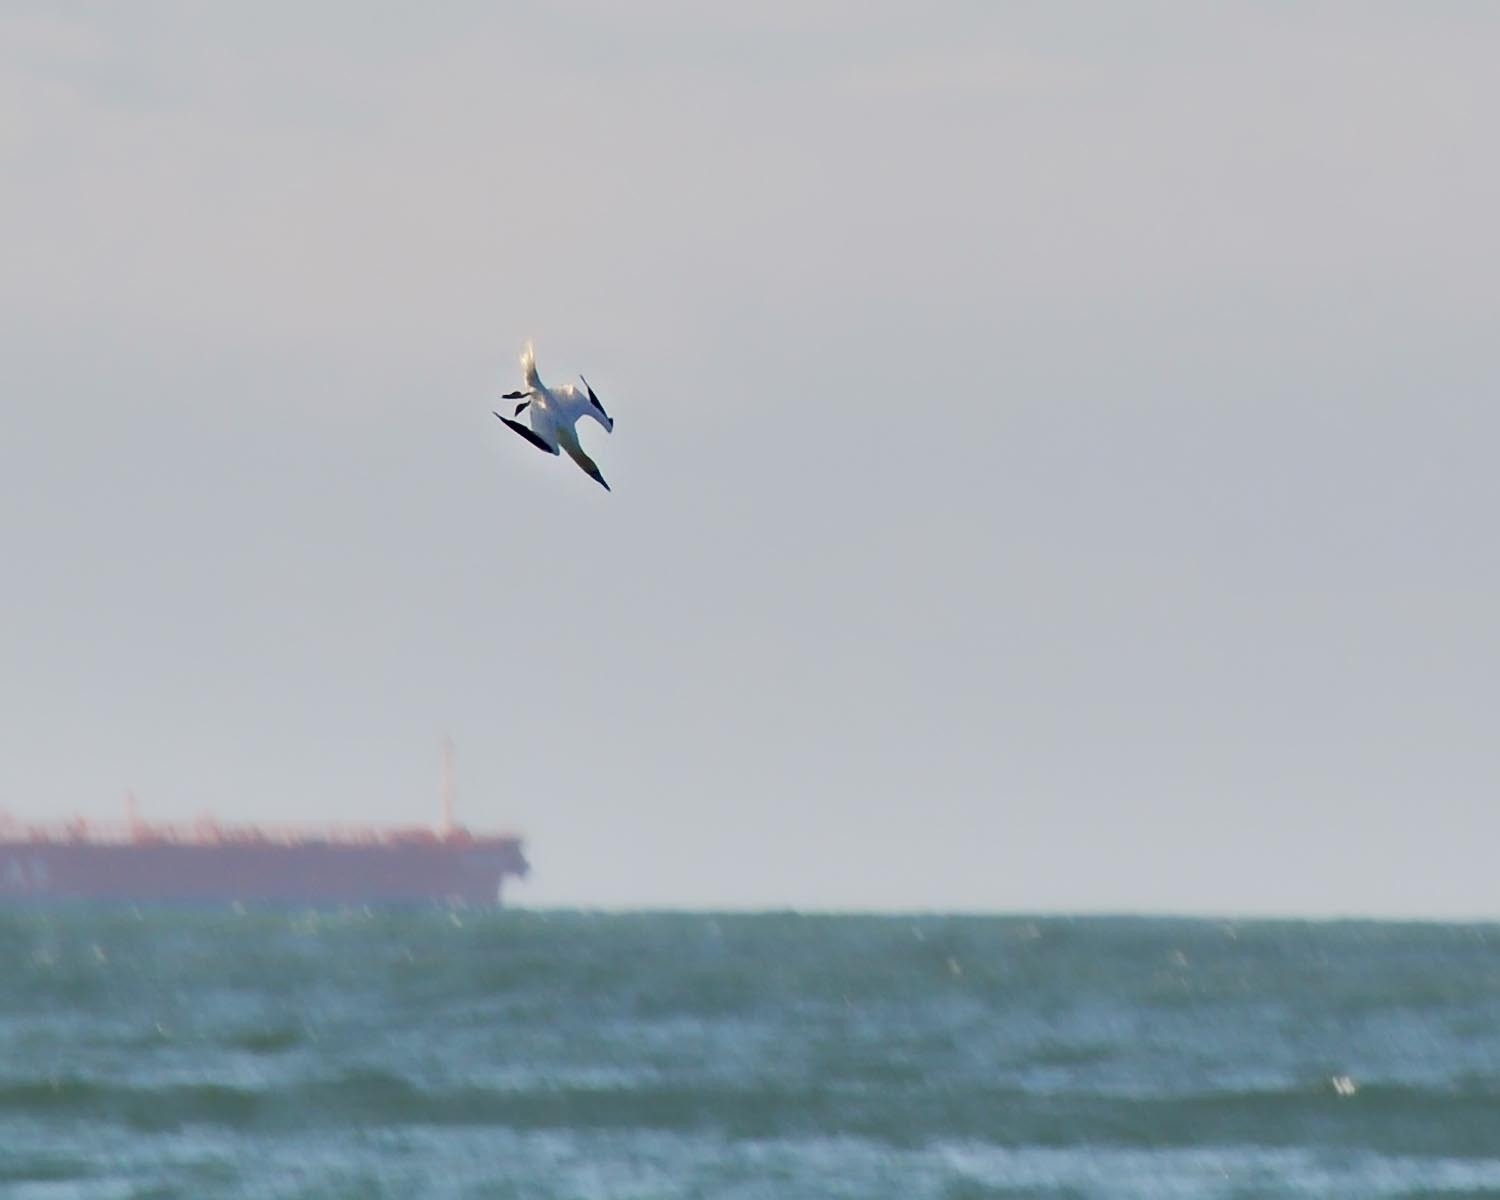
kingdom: Animalia
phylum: Chordata
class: Aves
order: Suliformes
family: Sulidae
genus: Morus
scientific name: Morus bassanus
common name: Northern gannet
